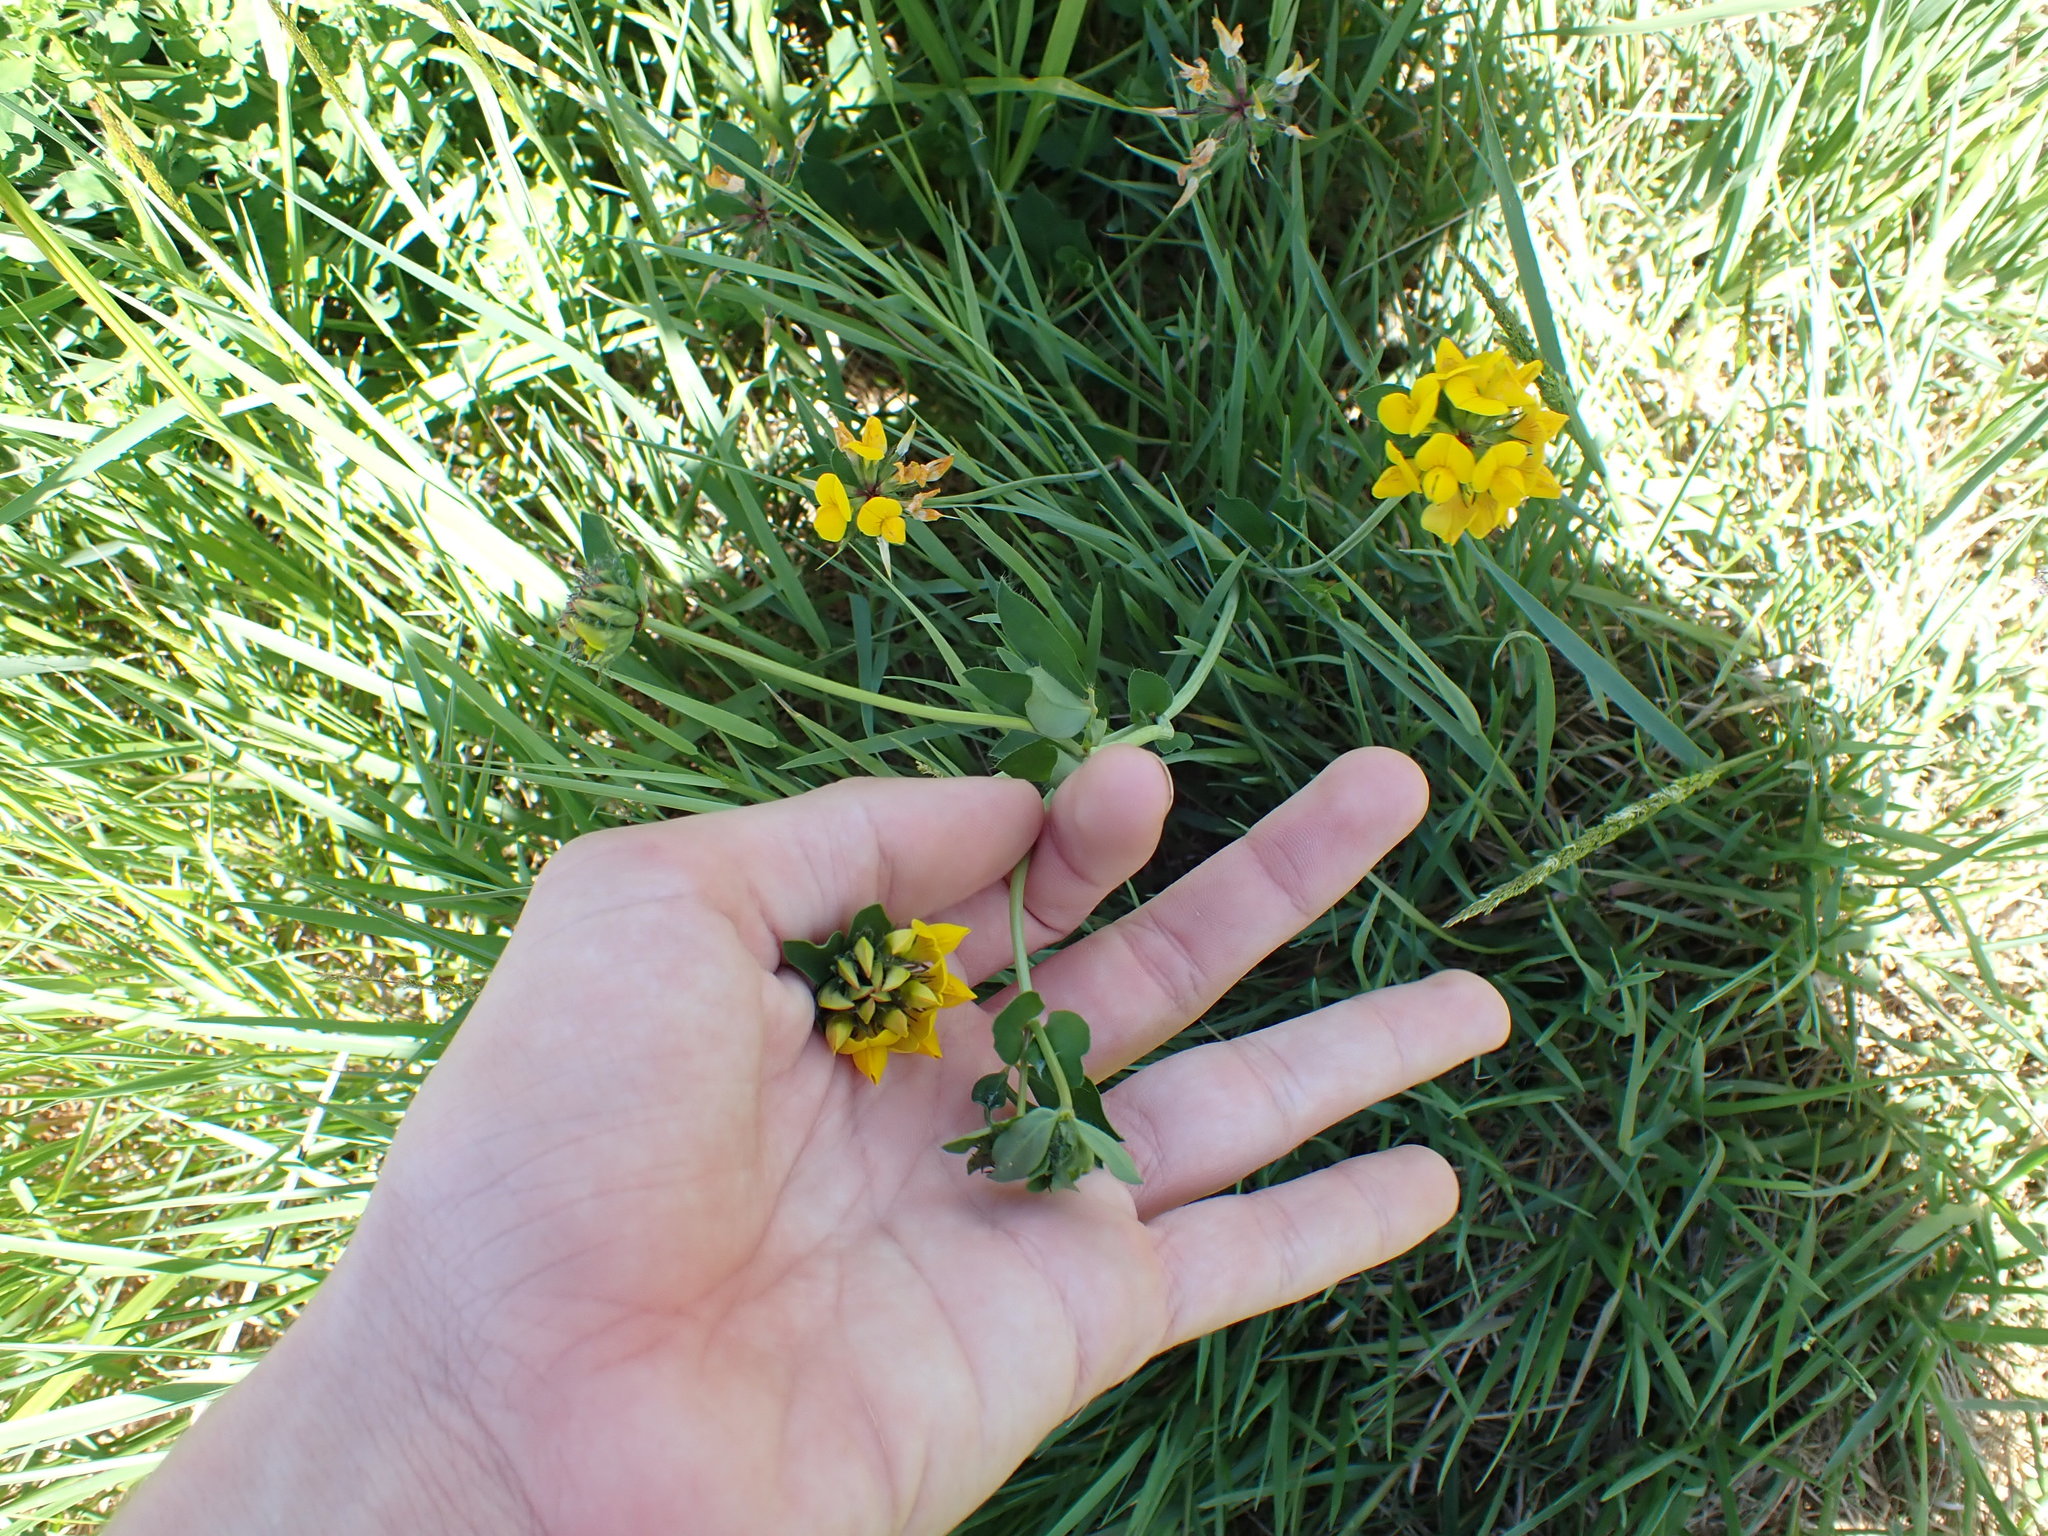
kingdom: Plantae
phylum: Tracheophyta
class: Magnoliopsida
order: Fabales
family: Fabaceae
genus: Lotus
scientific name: Lotus pedunculatus
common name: Greater birdsfoot-trefoil
